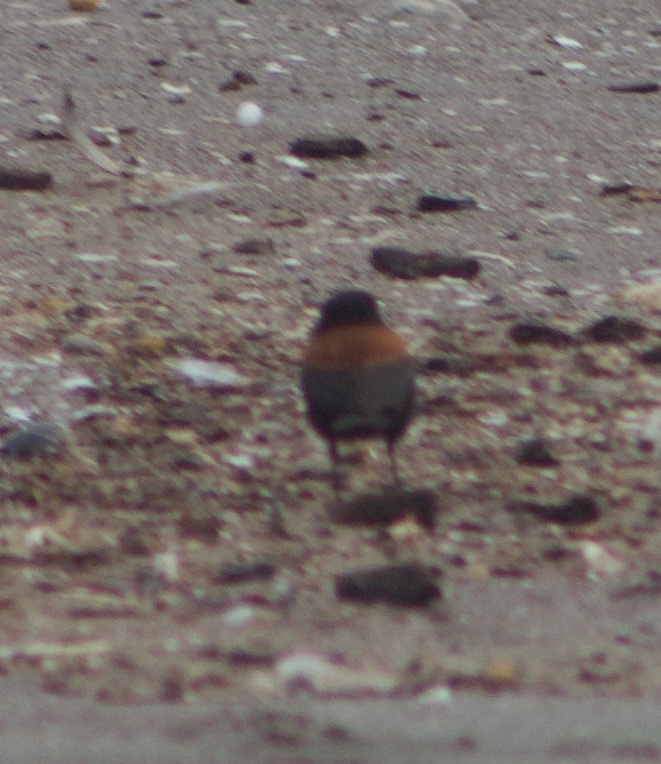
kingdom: Animalia
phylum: Chordata
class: Aves
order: Passeriformes
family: Tyrannidae
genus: Lessonia
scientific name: Lessonia rufa
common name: Austral negrito
